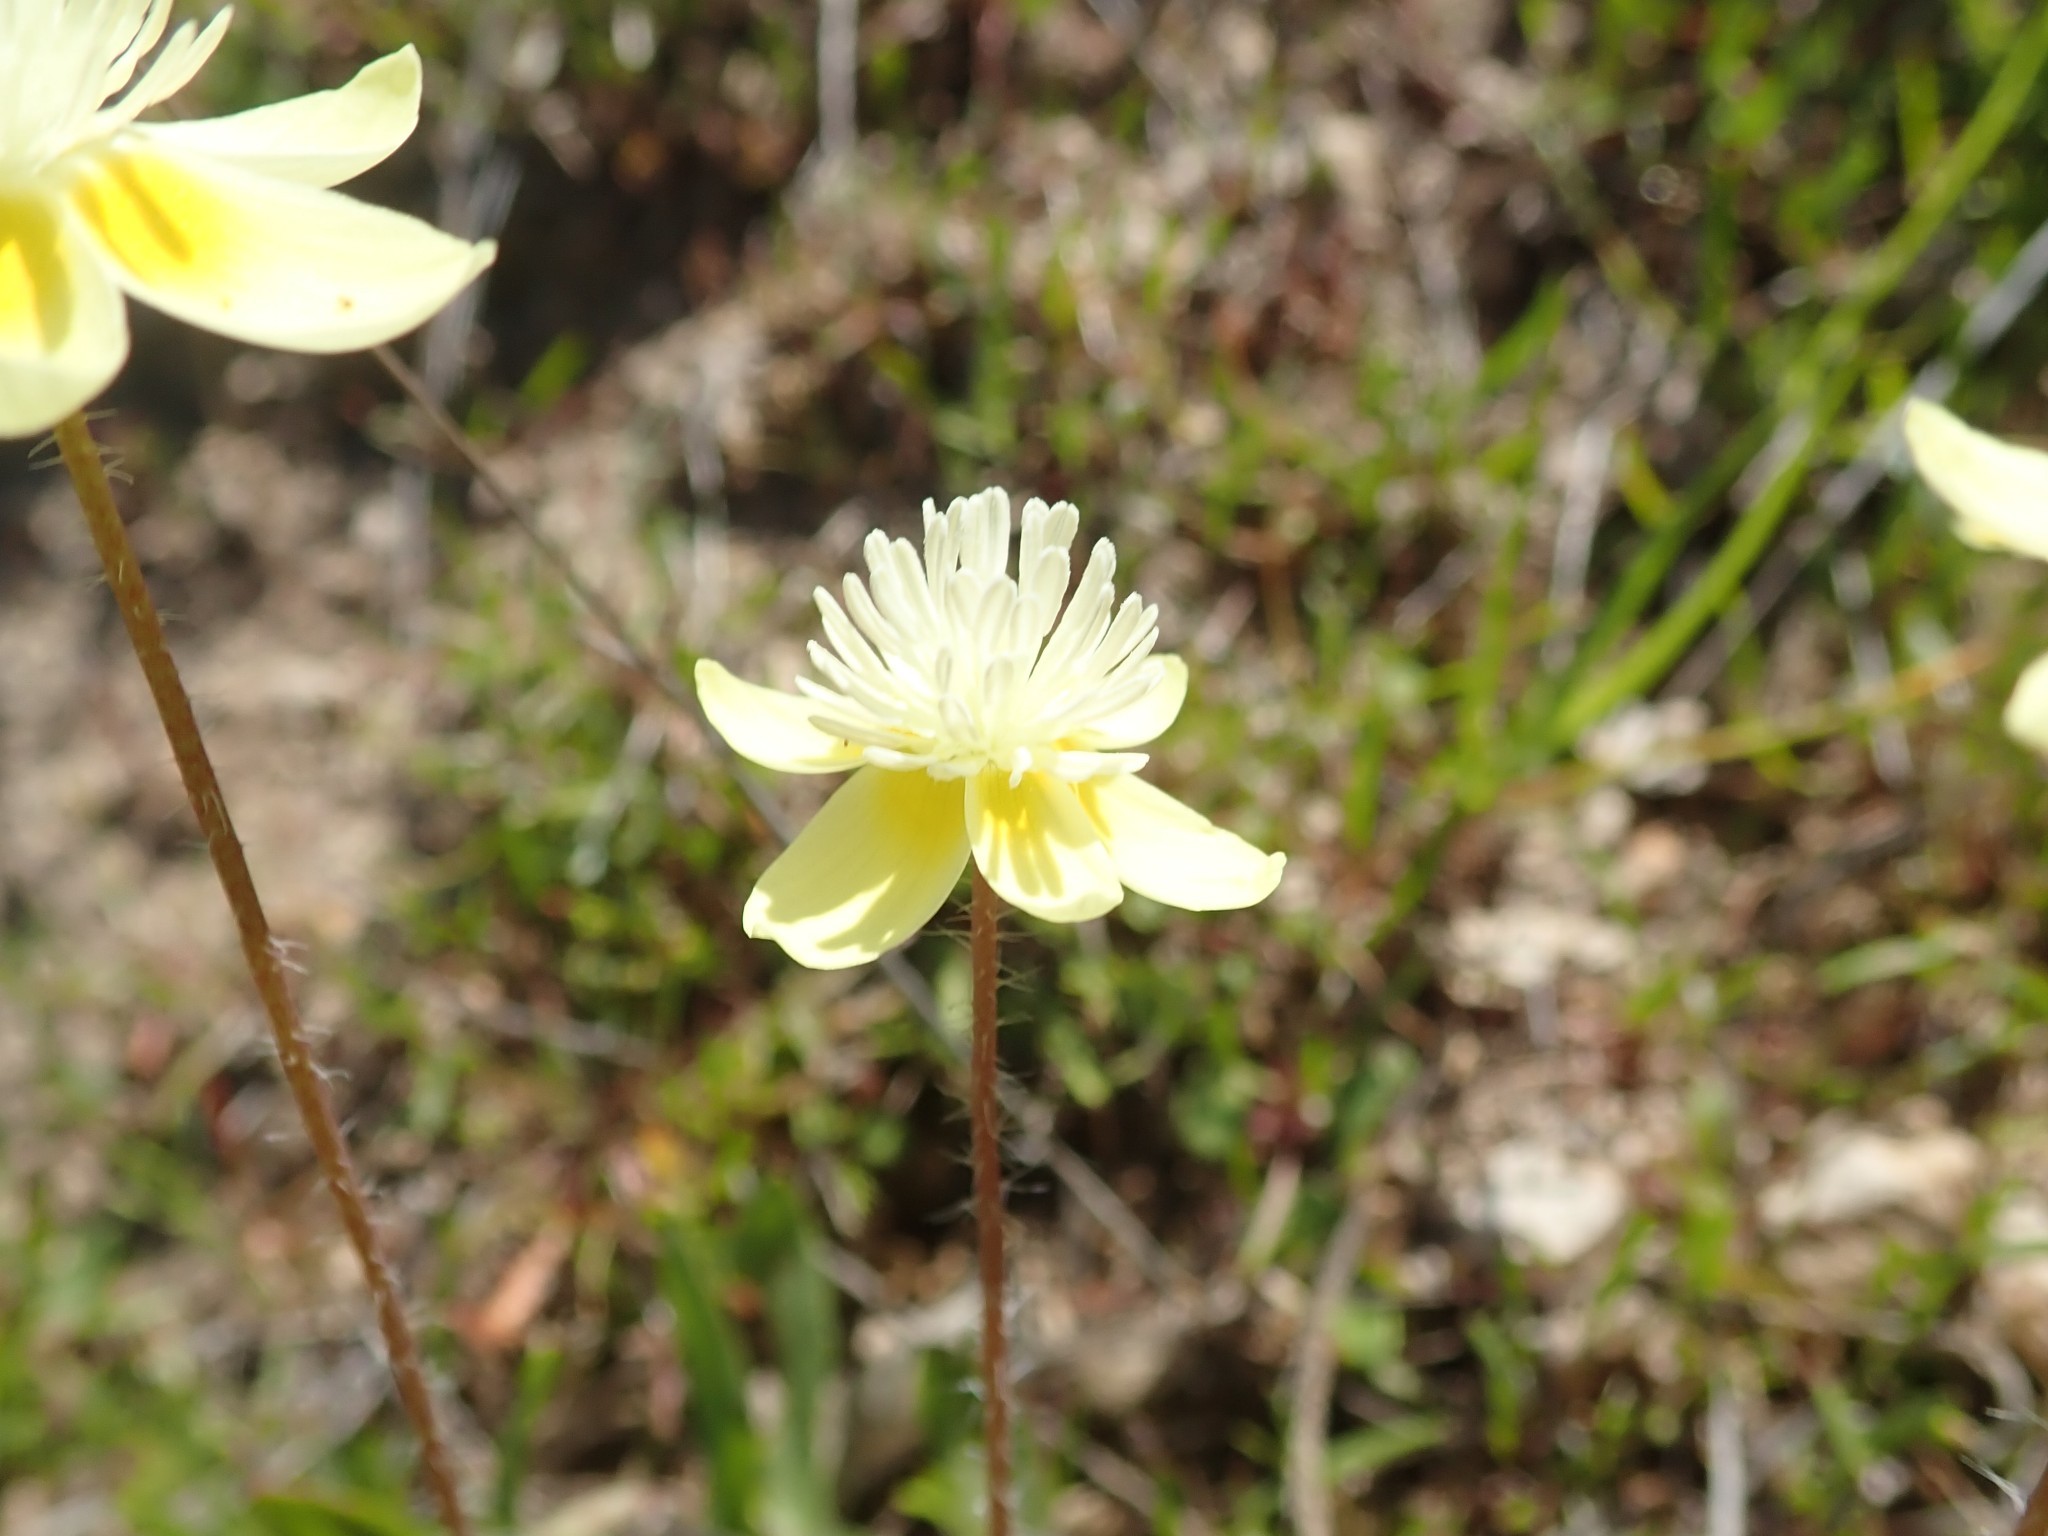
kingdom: Plantae
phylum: Tracheophyta
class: Magnoliopsida
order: Ranunculales
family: Papaveraceae
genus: Platystemon
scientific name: Platystemon californicus
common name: Cream-cups
